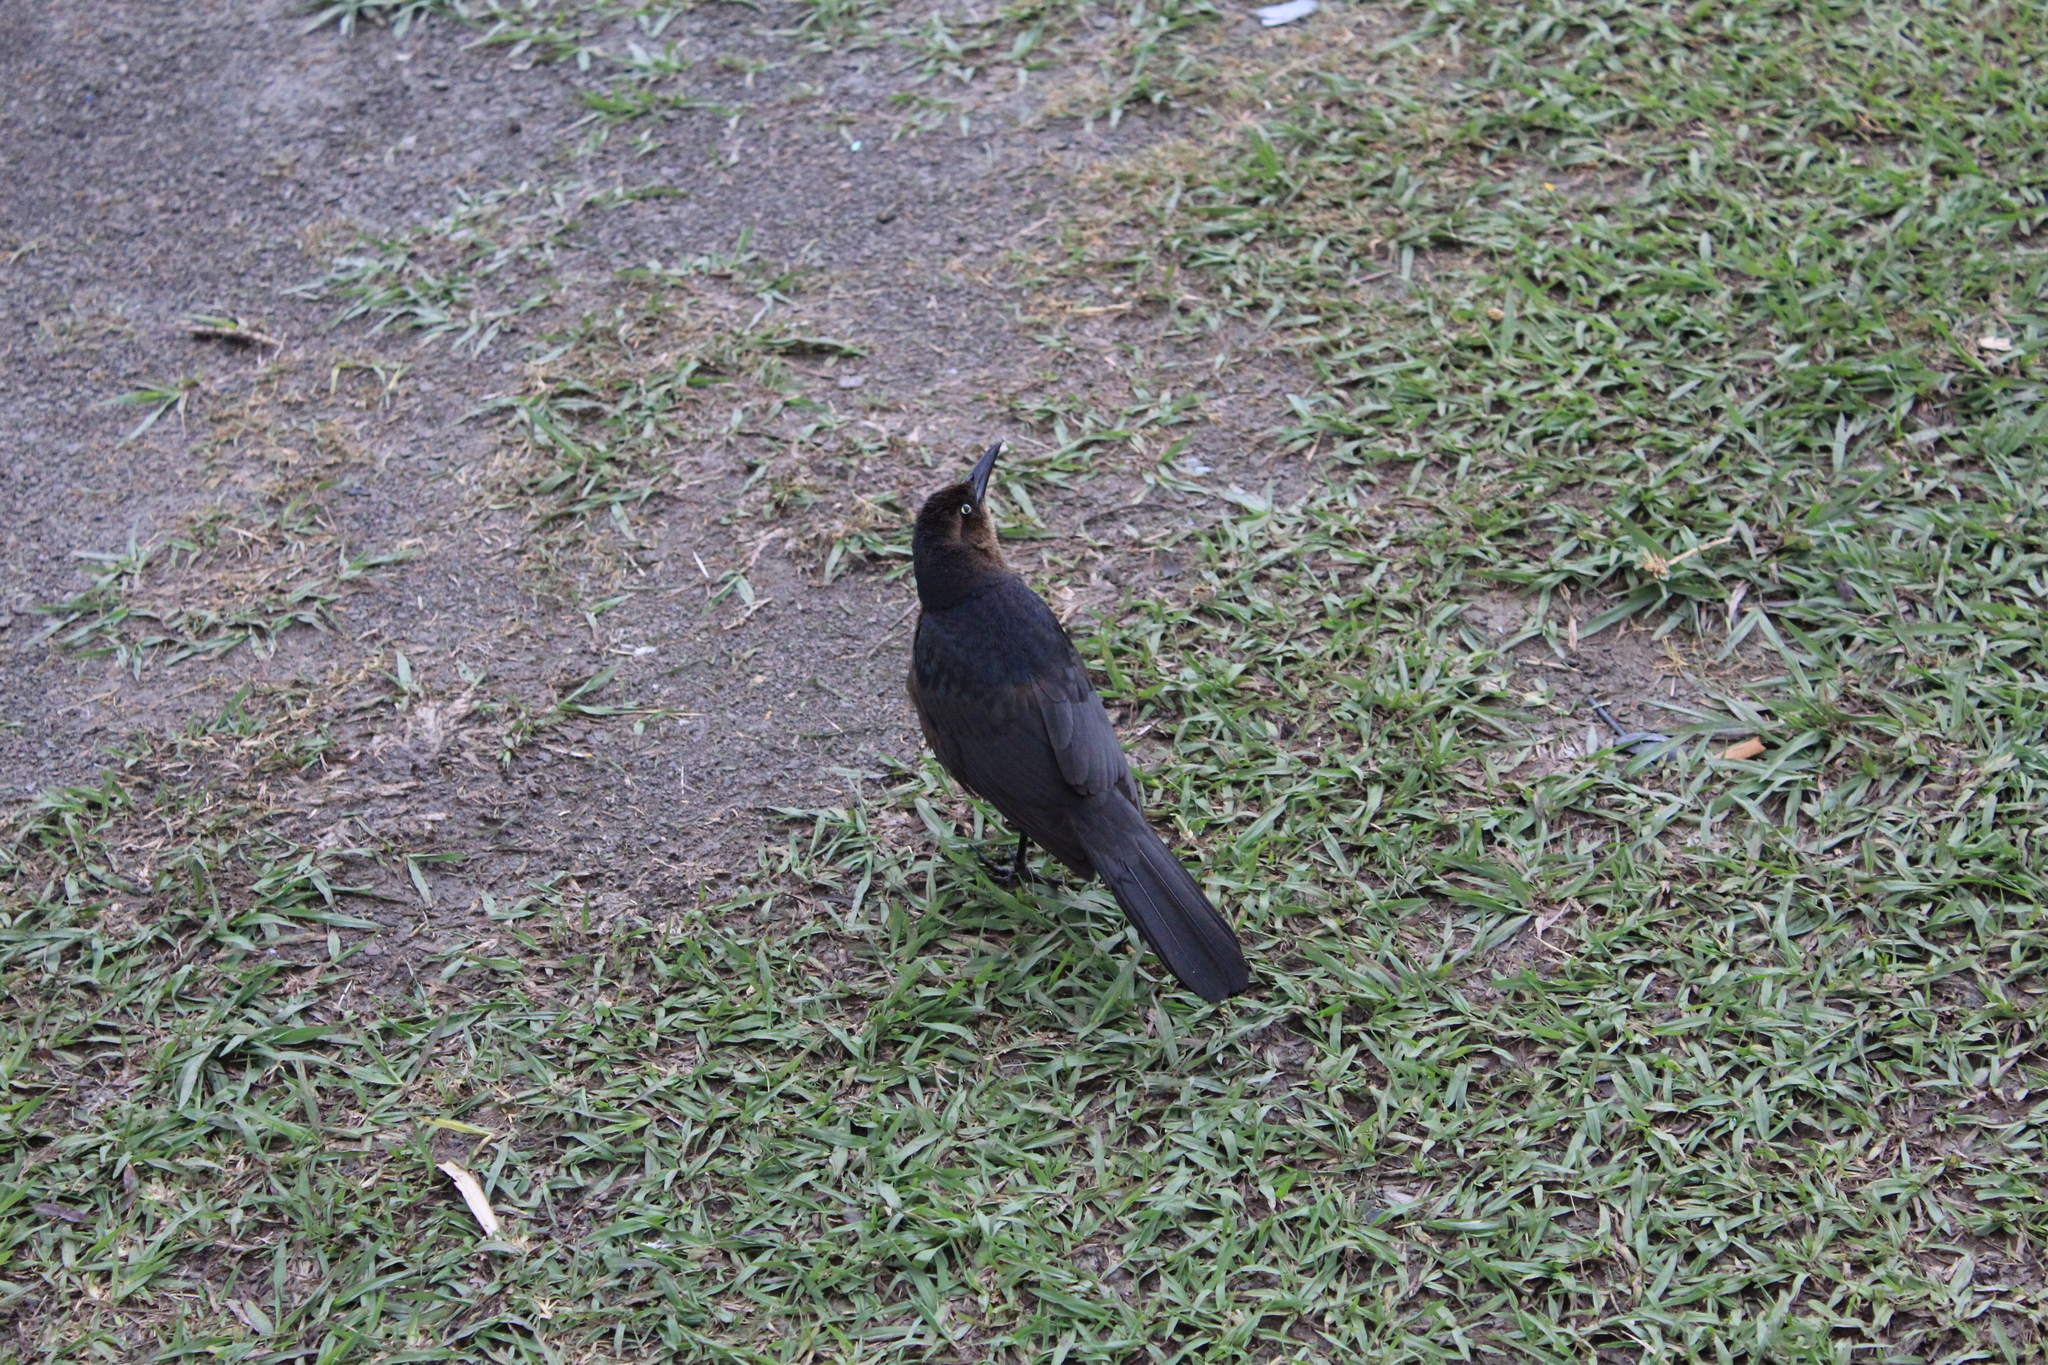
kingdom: Animalia
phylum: Chordata
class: Aves
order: Passeriformes
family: Icteridae
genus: Quiscalus
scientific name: Quiscalus mexicanus
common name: Great-tailed grackle
